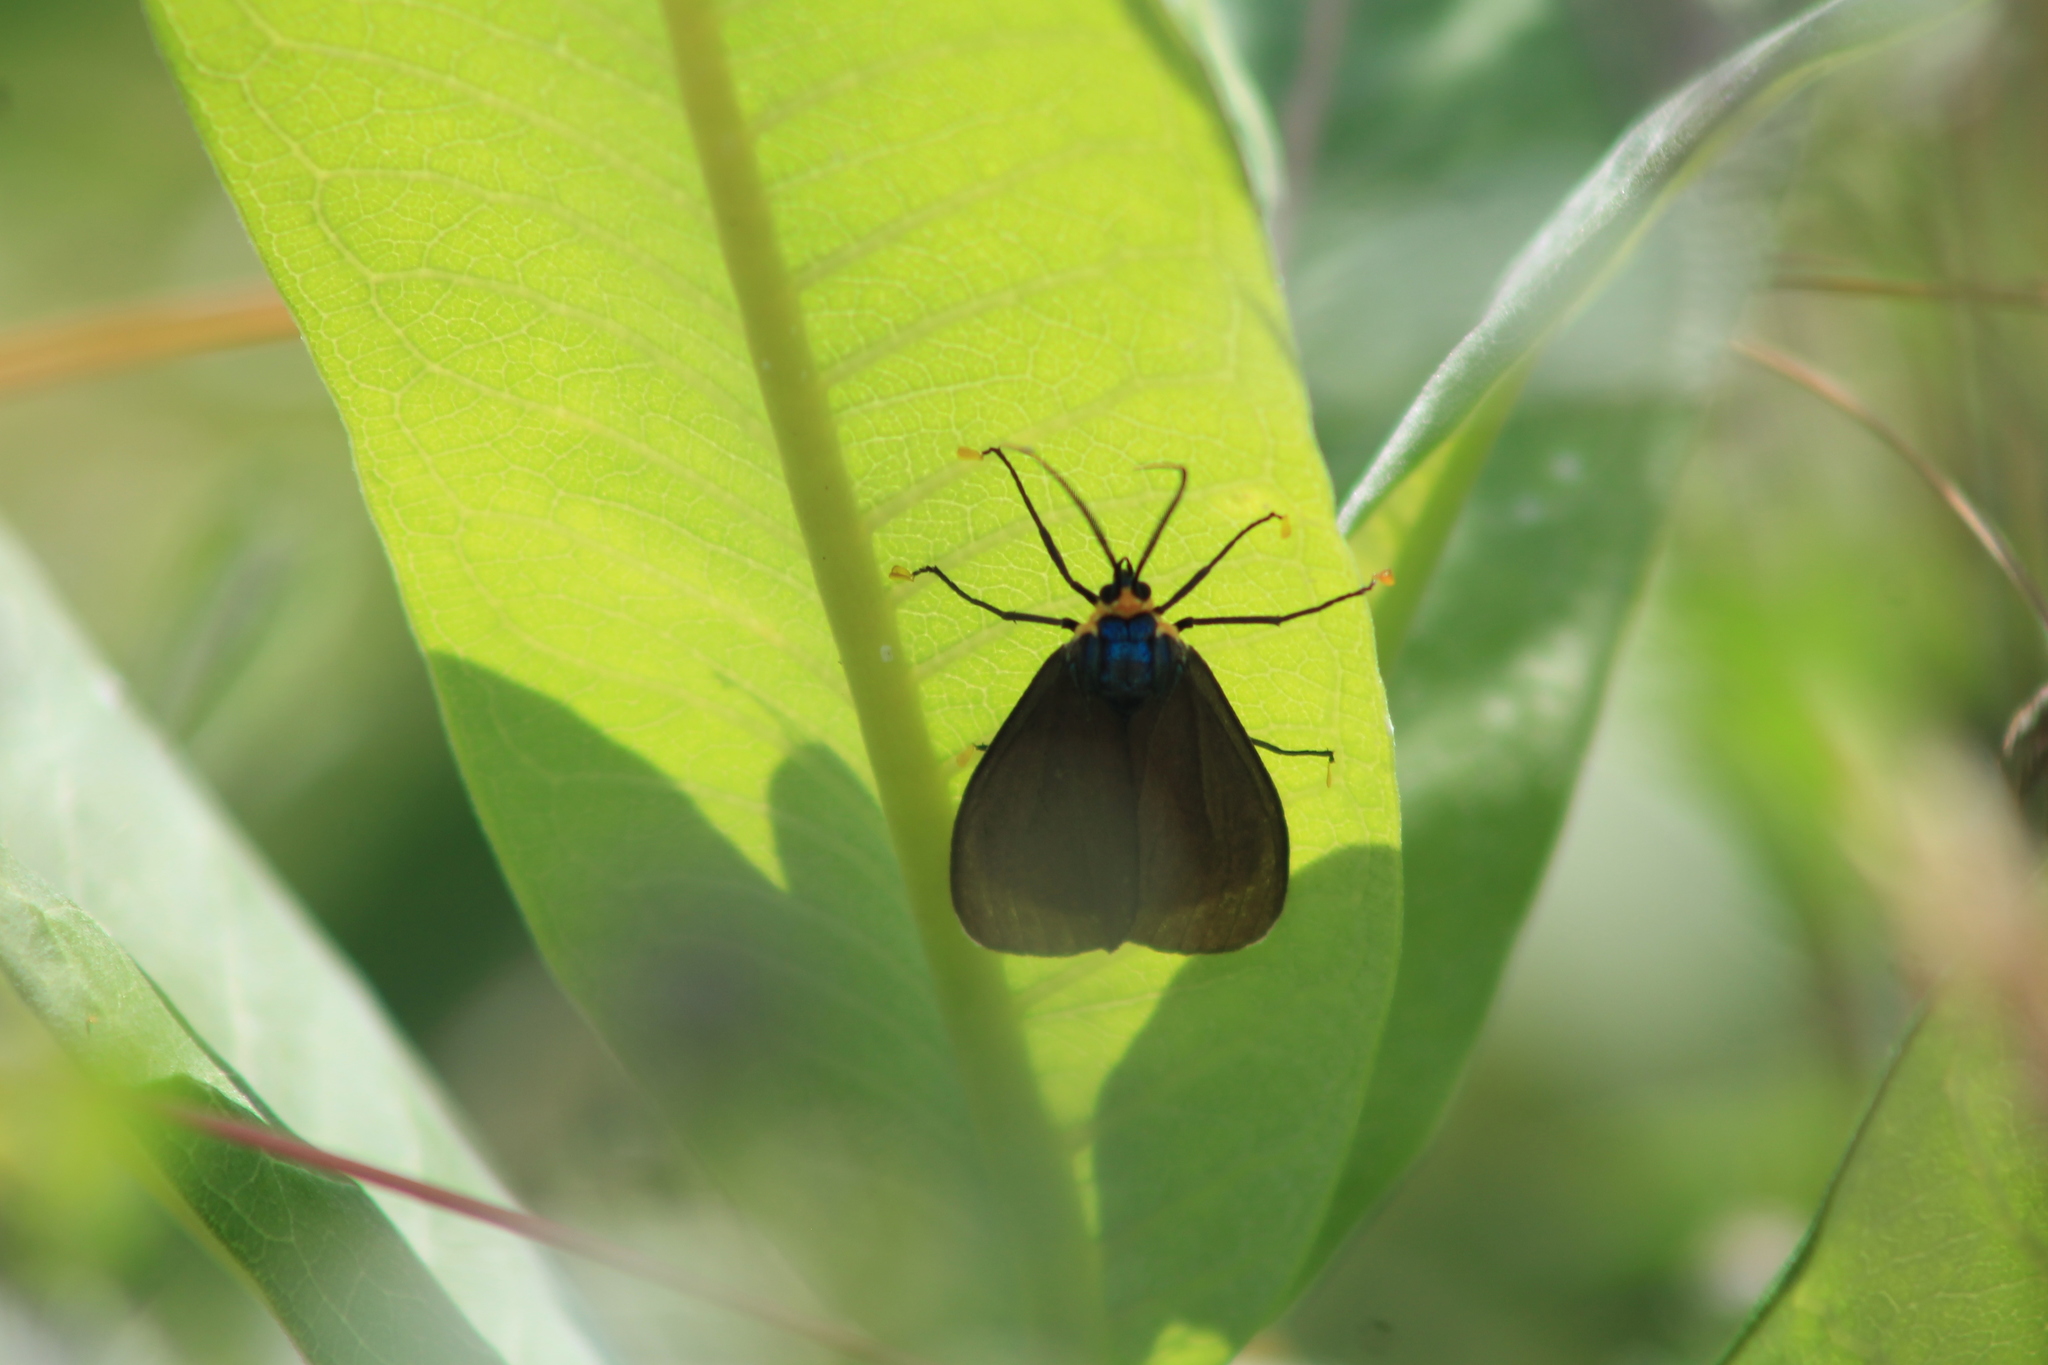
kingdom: Animalia
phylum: Arthropoda
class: Insecta
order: Lepidoptera
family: Erebidae
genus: Ctenucha
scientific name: Ctenucha virginica
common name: Virginia ctenucha moth
